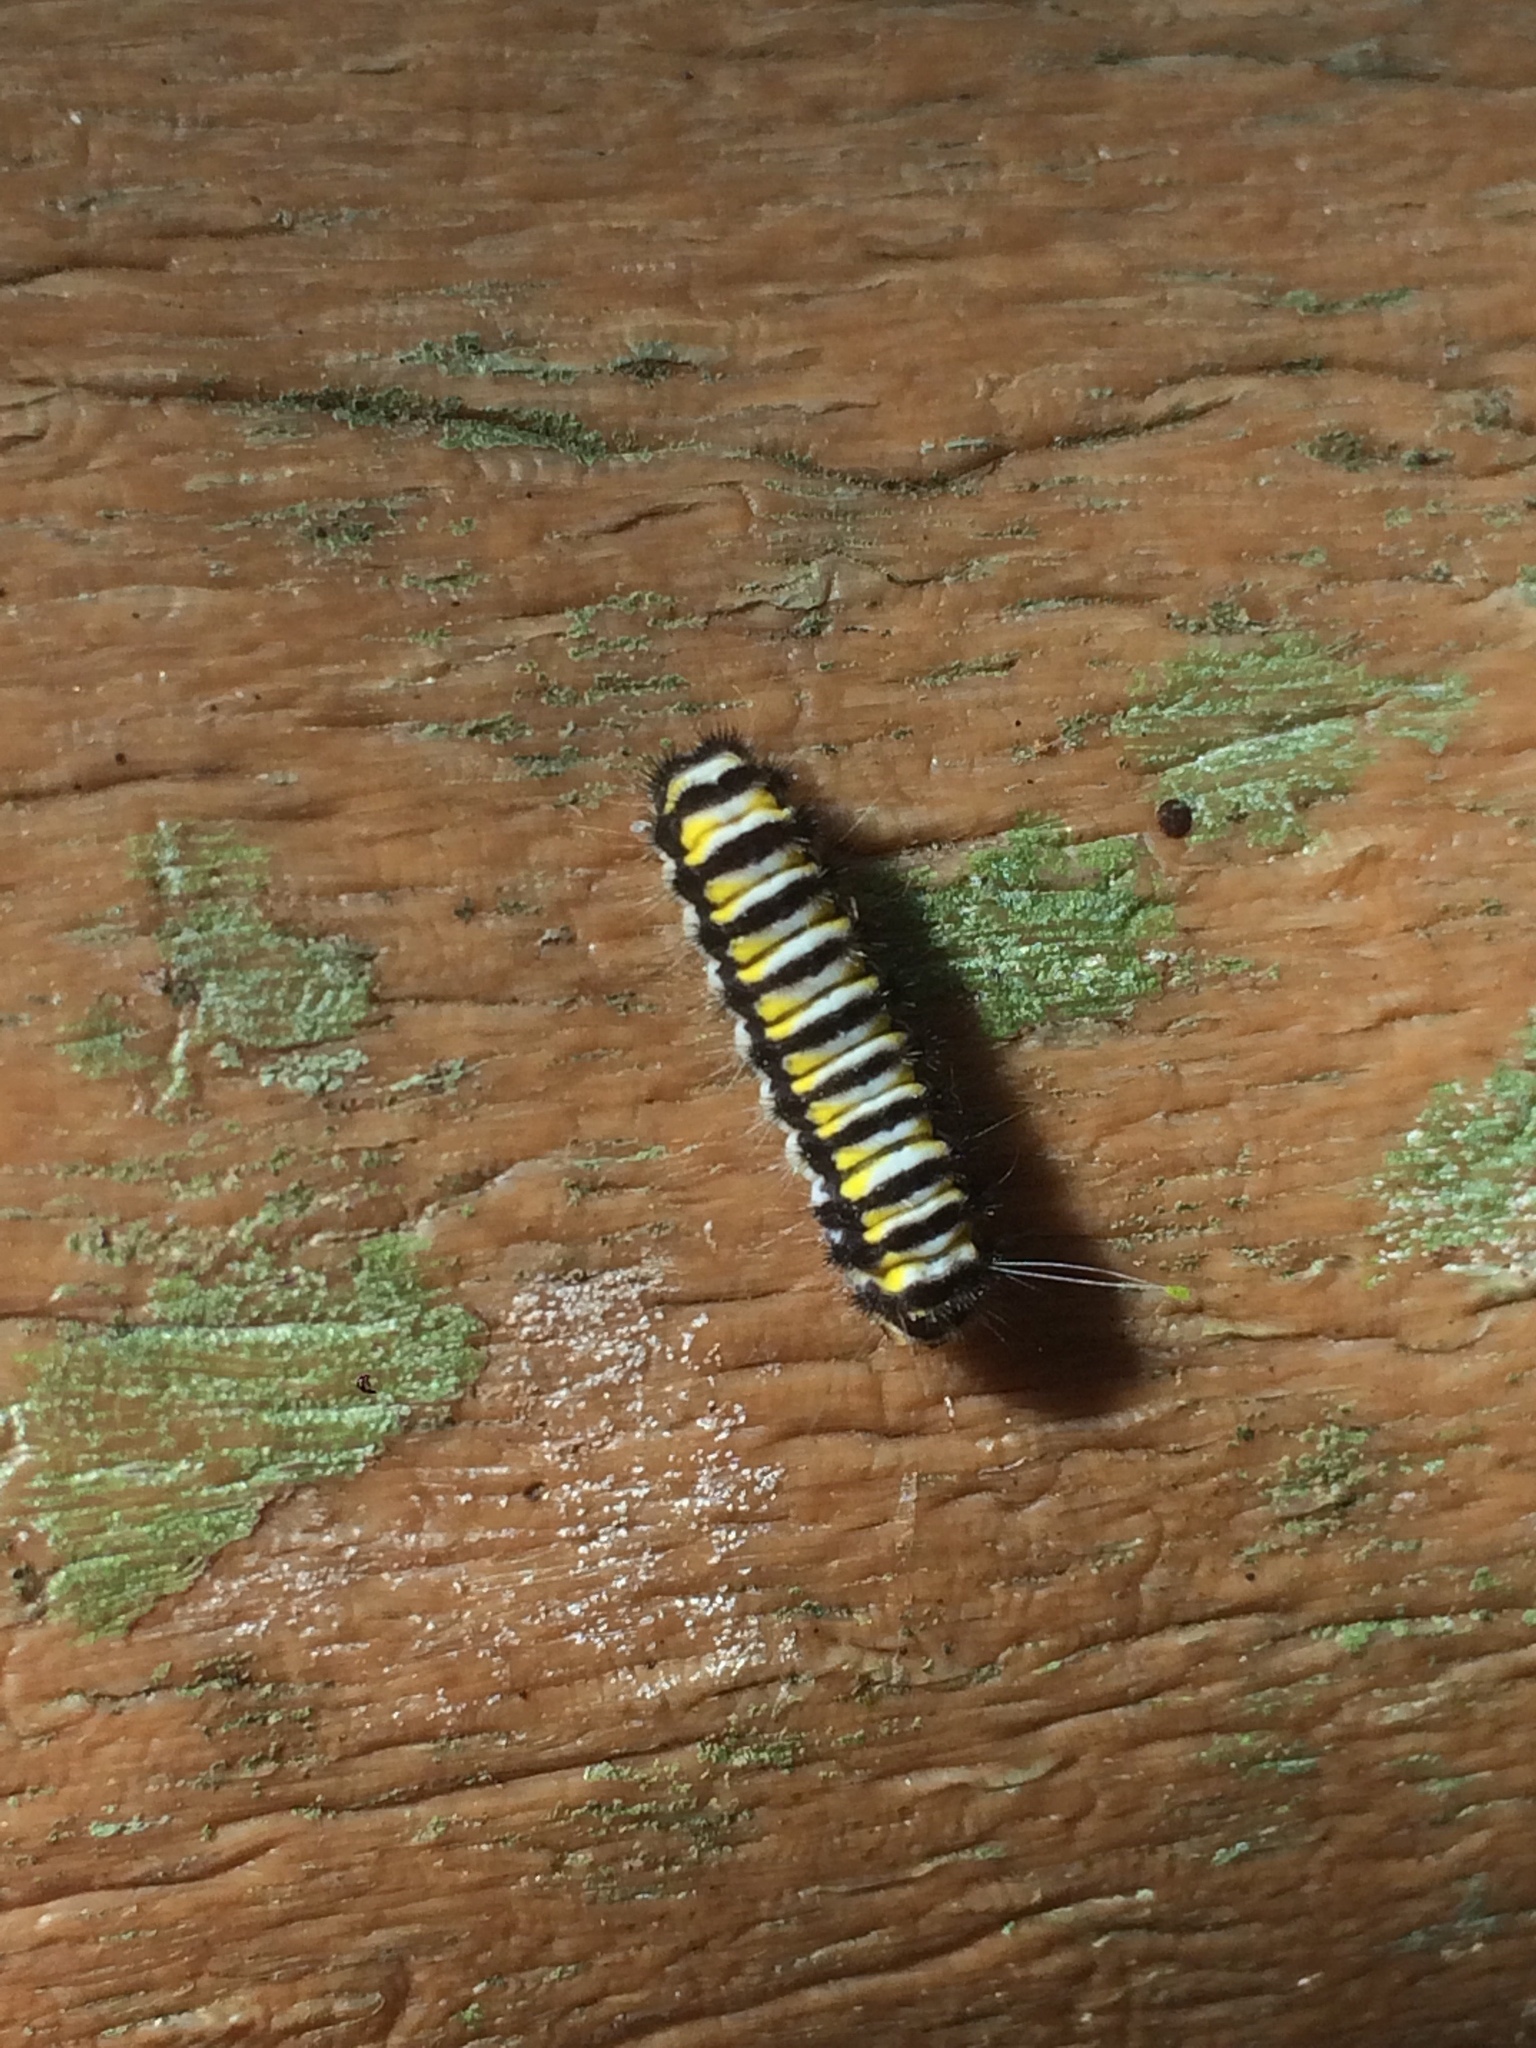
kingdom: Animalia
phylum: Arthropoda
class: Insecta
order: Lepidoptera
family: Zygaenidae
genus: Harrisina
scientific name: Harrisina americana
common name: Grapeleaf skeletonizer moth
